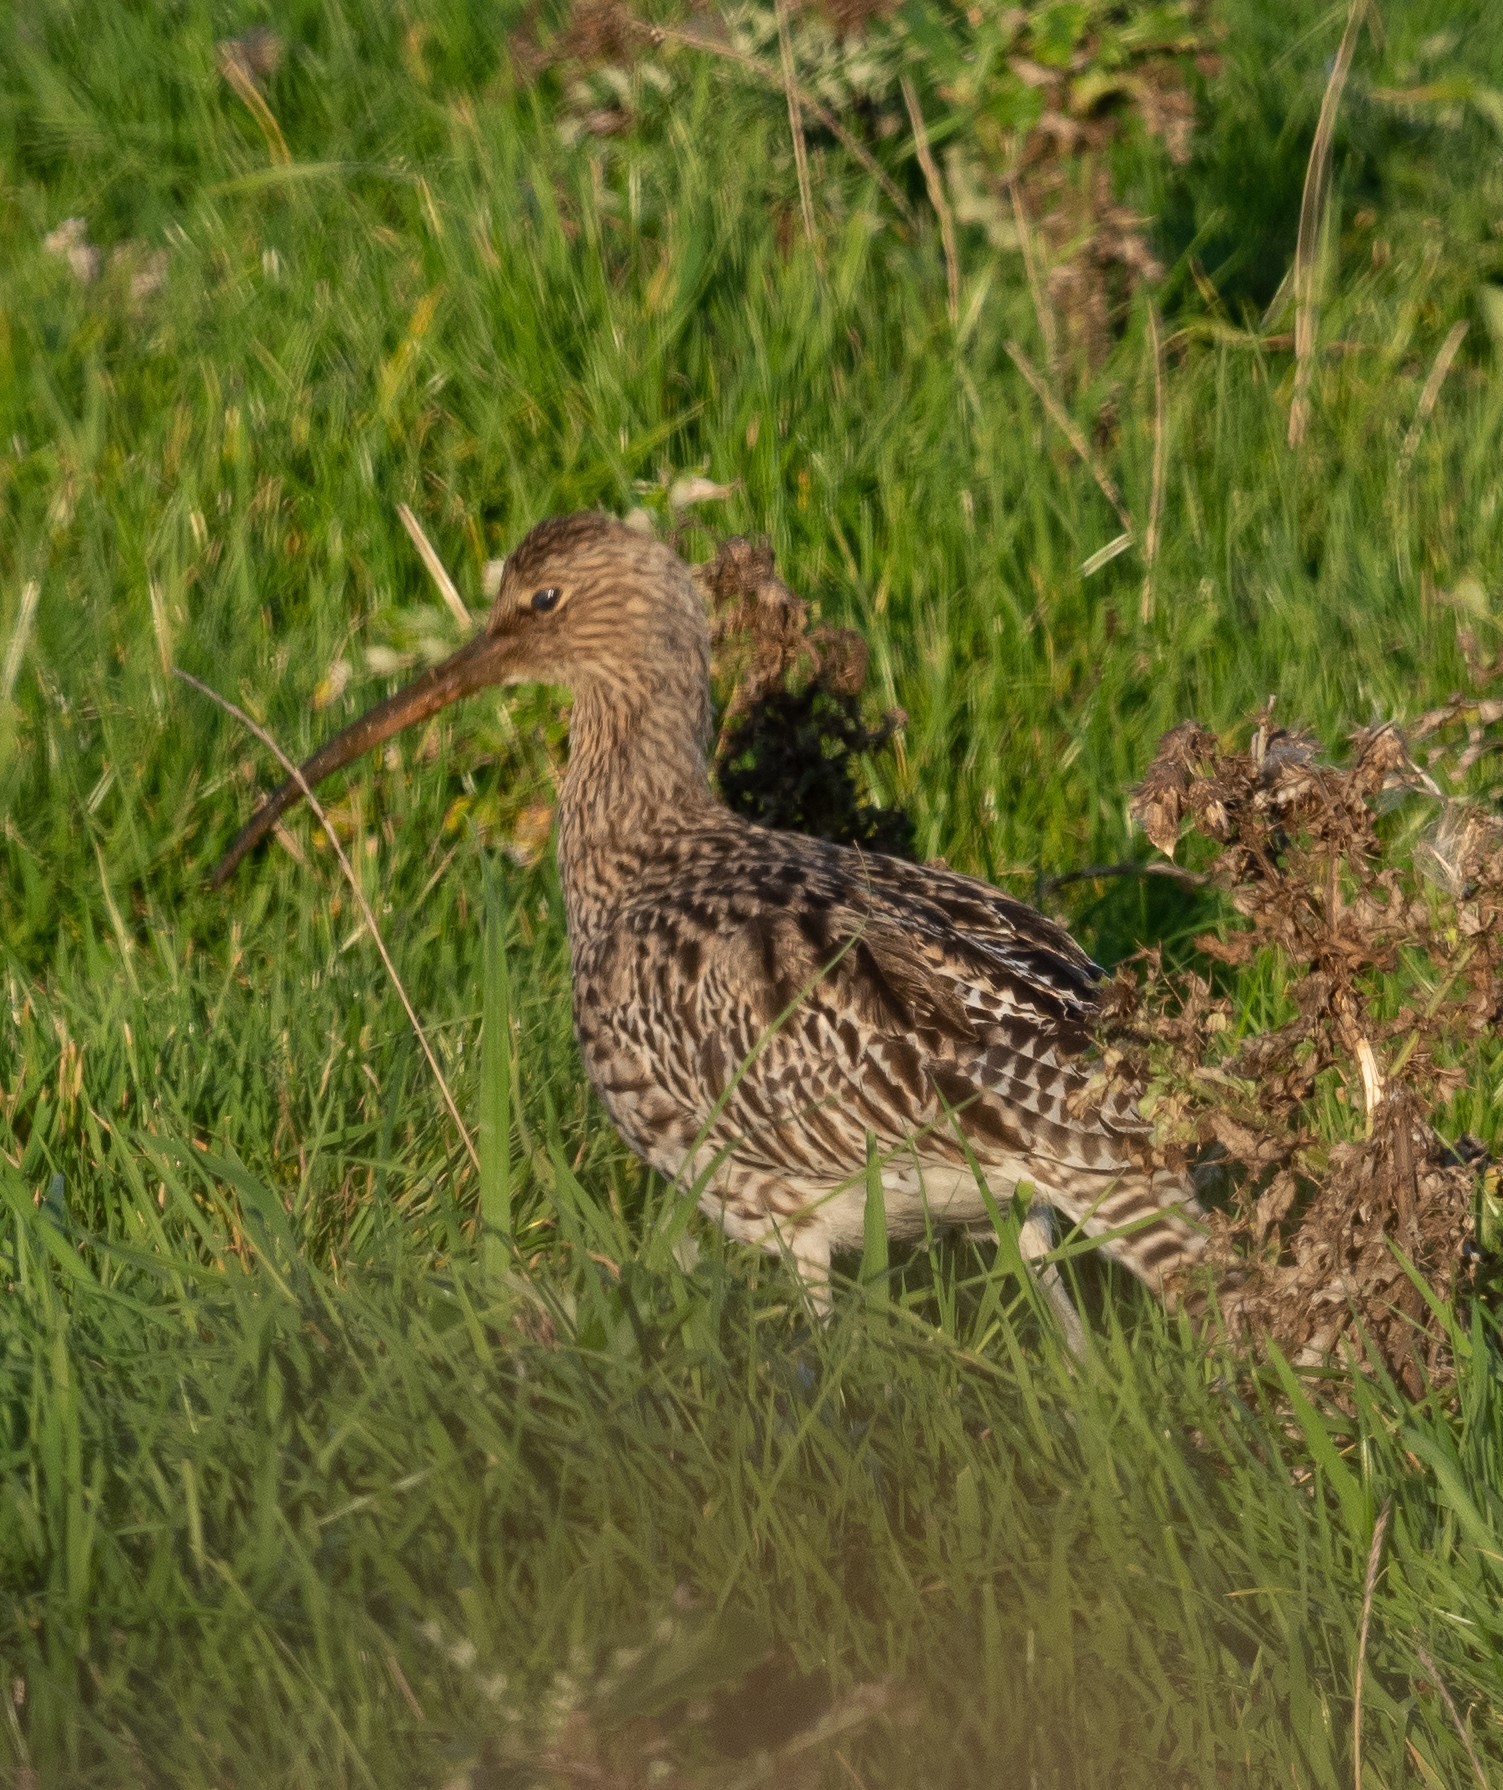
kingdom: Animalia
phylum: Chordata
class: Aves
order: Charadriiformes
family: Scolopacidae
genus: Numenius
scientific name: Numenius arquata
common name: Eurasian curlew
